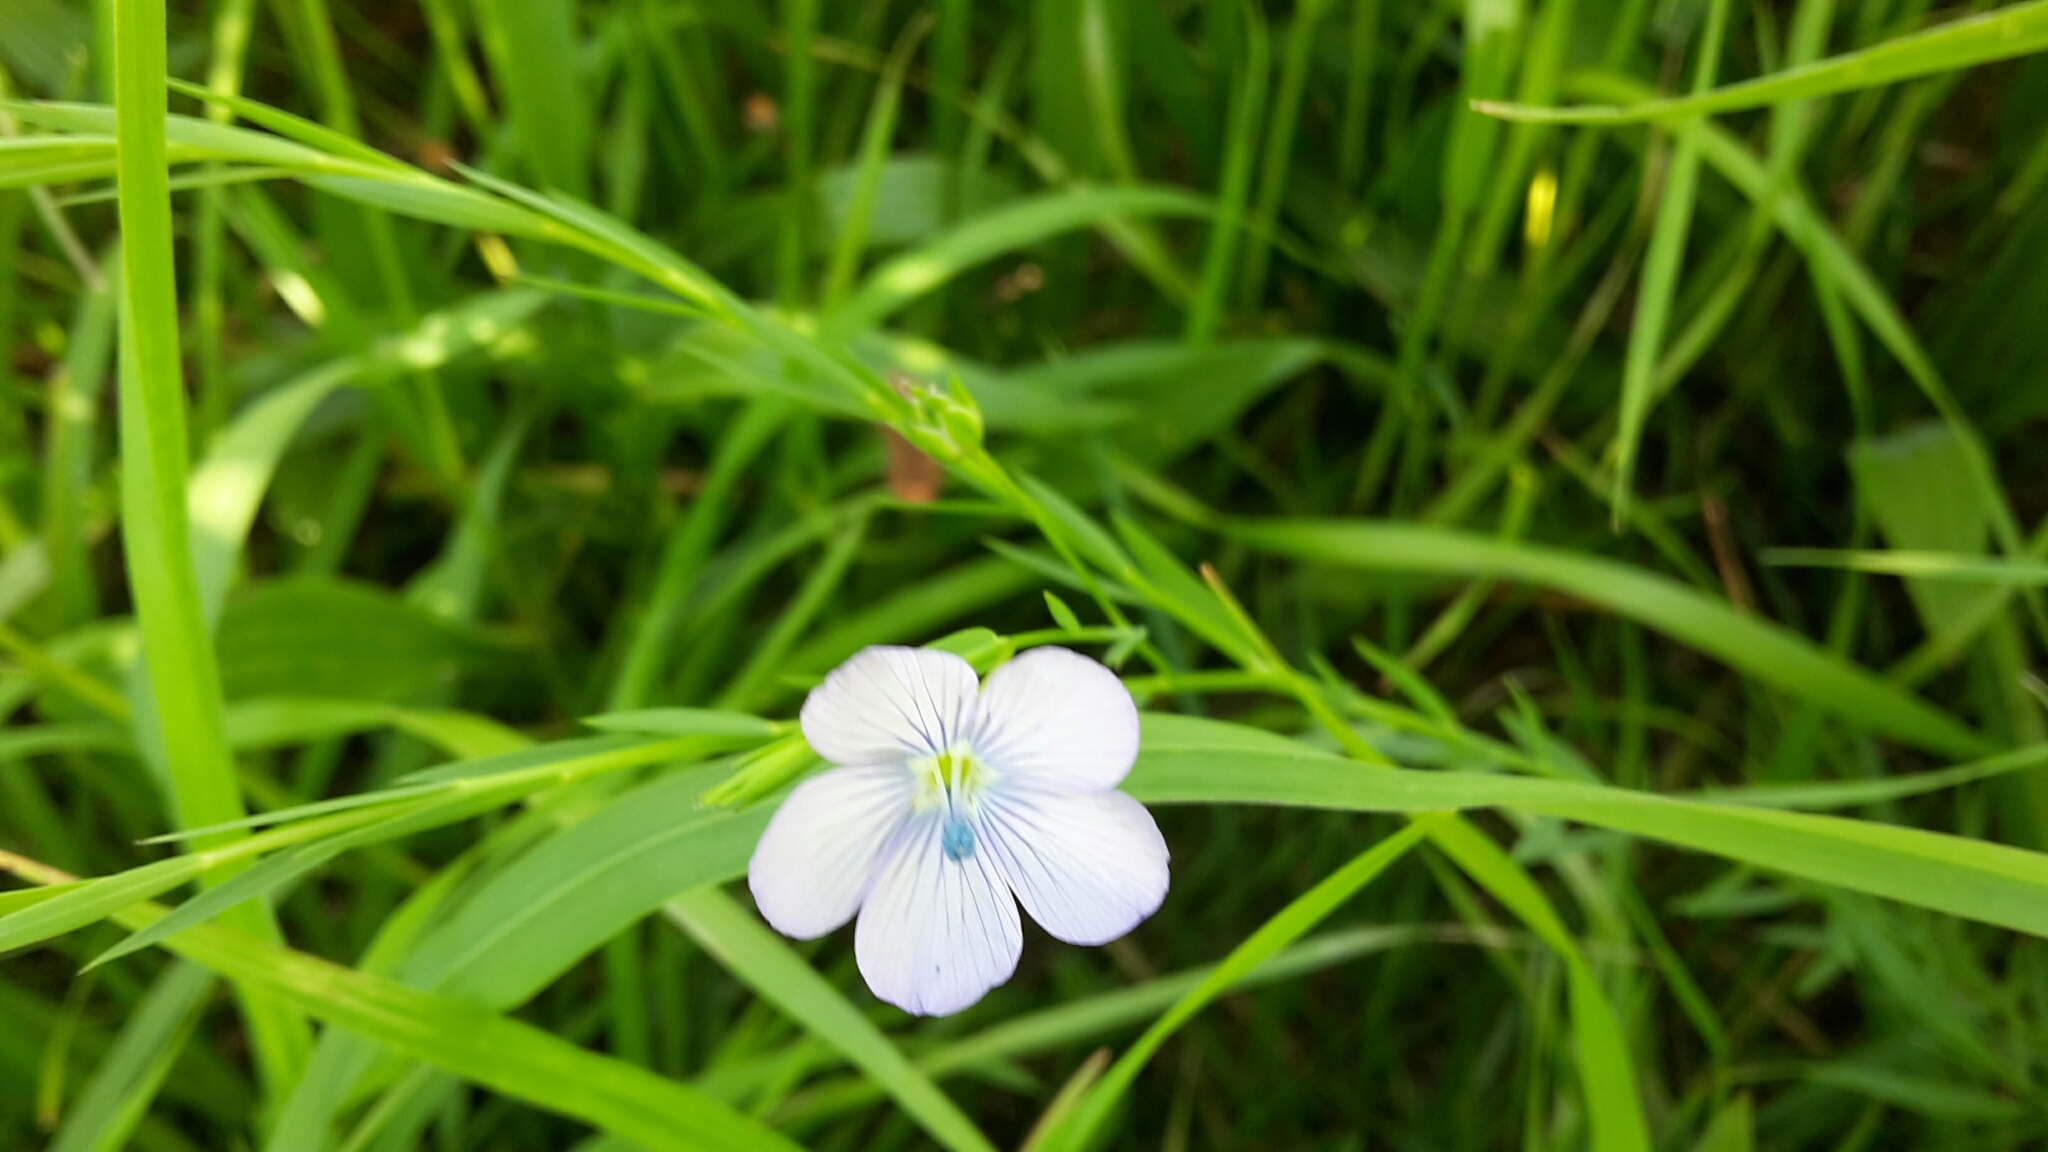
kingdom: Plantae
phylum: Tracheophyta
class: Magnoliopsida
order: Malpighiales
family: Linaceae
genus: Linum
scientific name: Linum bienne
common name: Pale flax
